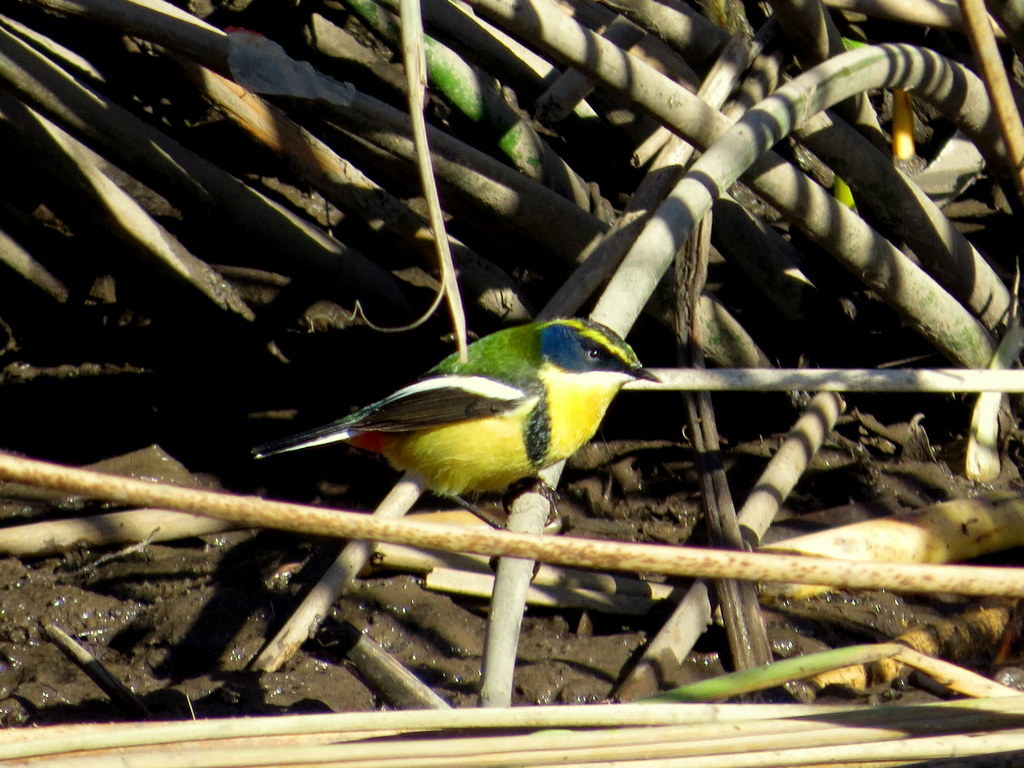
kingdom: Animalia
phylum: Chordata
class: Aves
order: Passeriformes
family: Tyrannidae
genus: Tachuris
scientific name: Tachuris rubrigastra
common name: Many-colored rush tyrant
